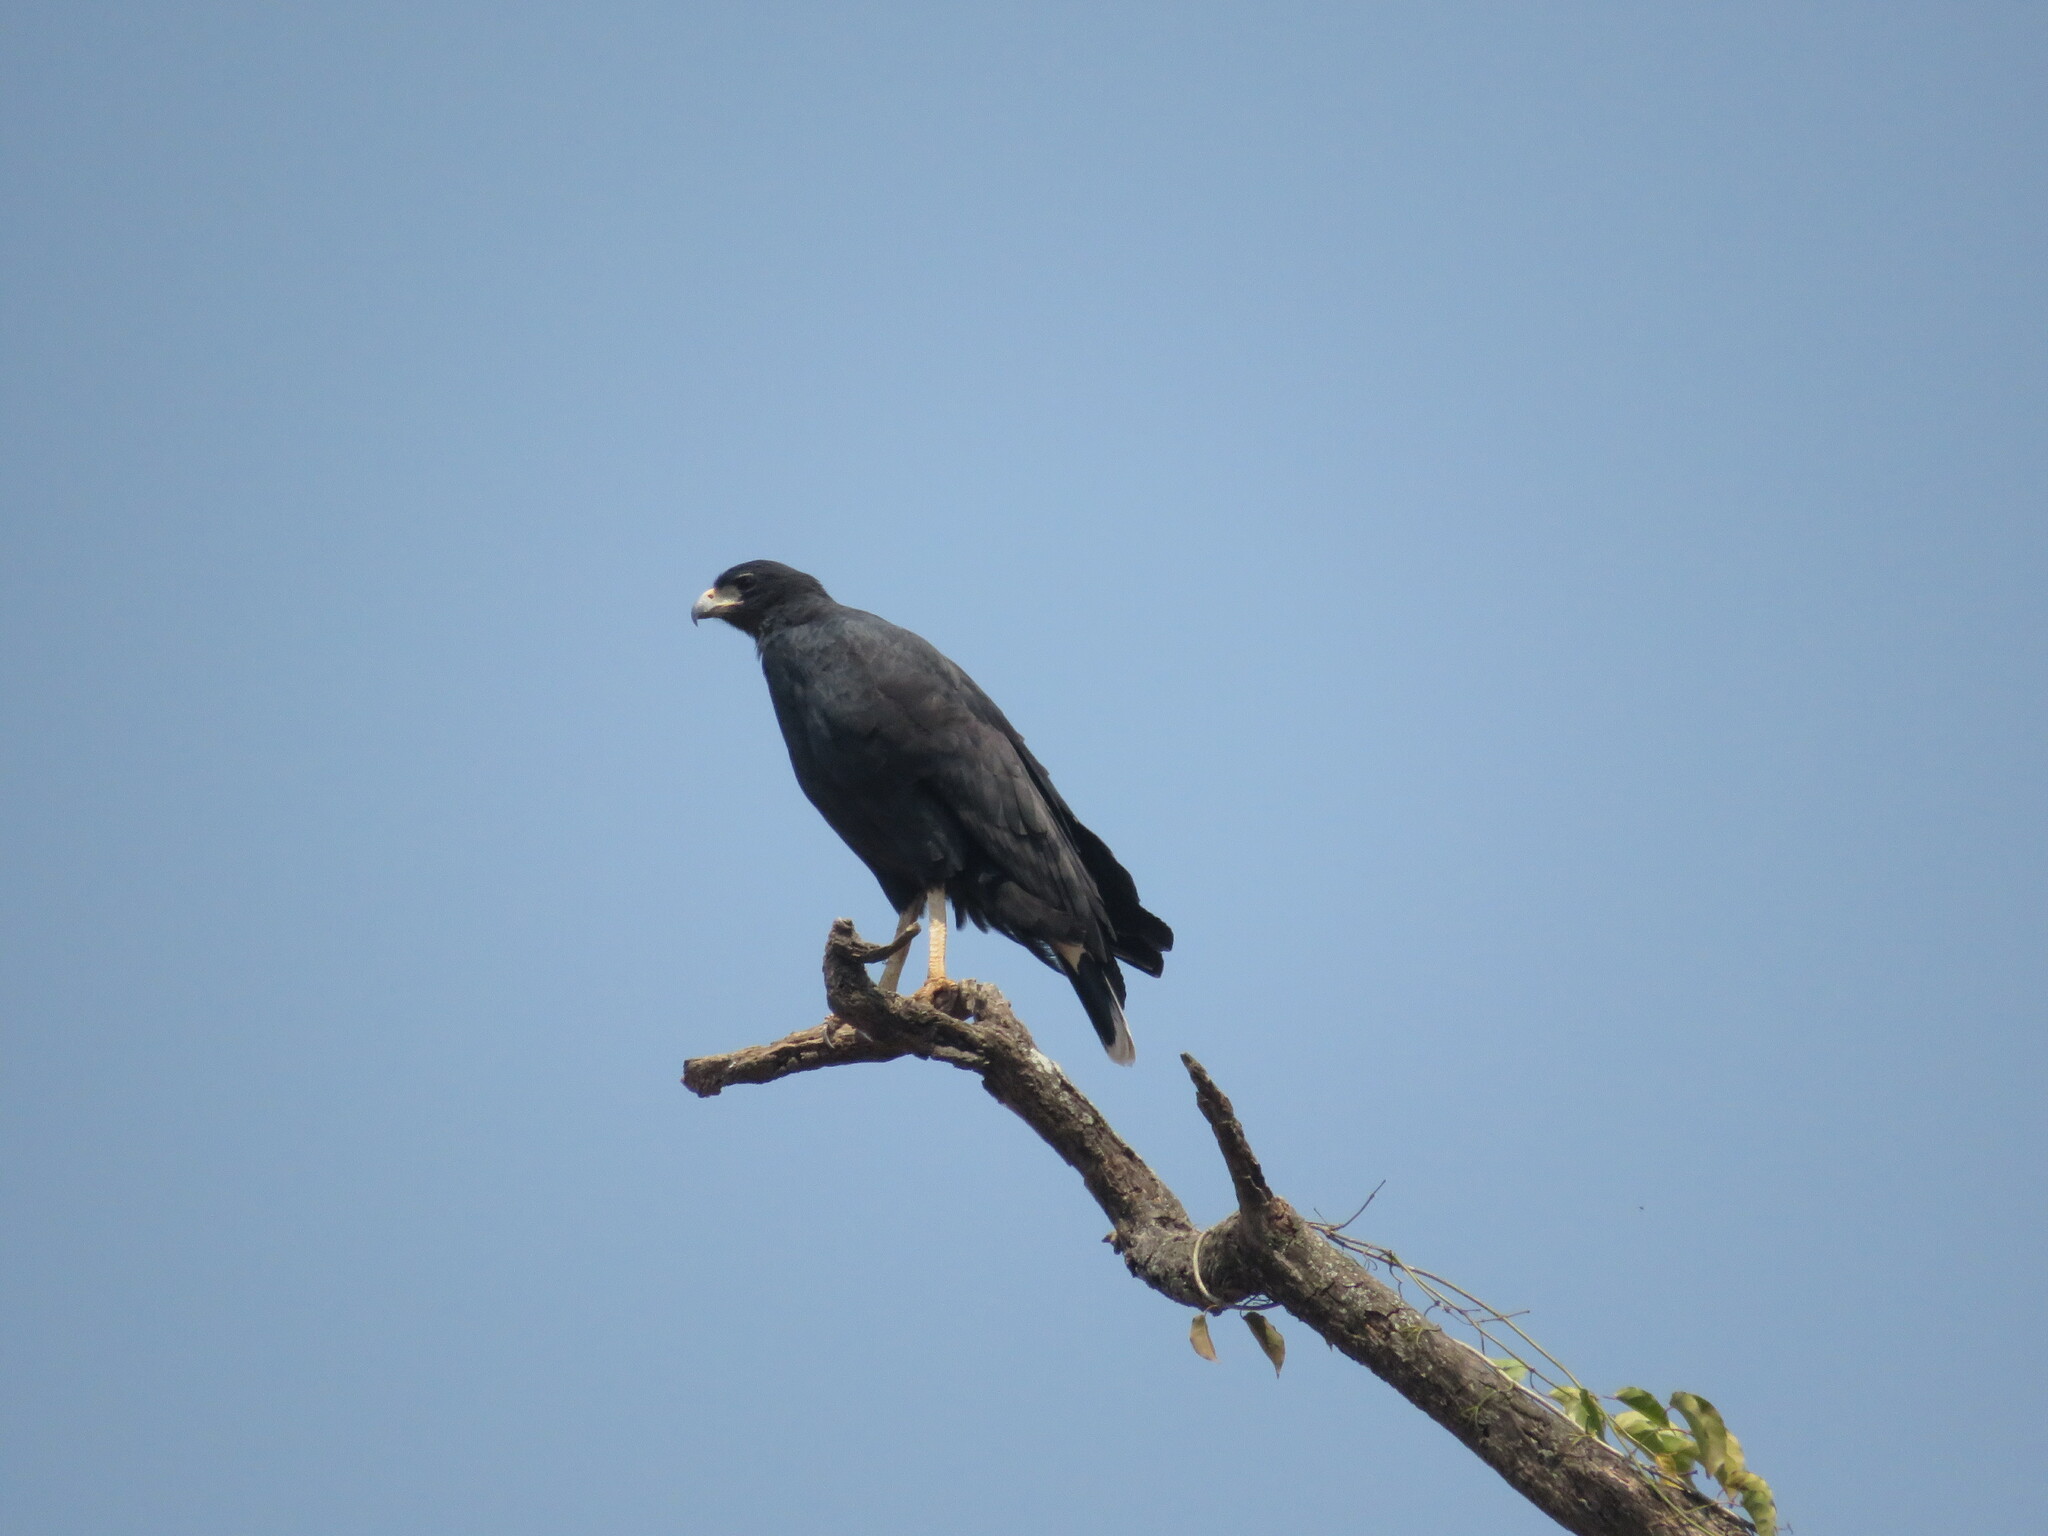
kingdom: Animalia
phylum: Chordata
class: Aves
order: Accipitriformes
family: Accipitridae
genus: Buteogallus
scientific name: Buteogallus urubitinga
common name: Great black hawk
